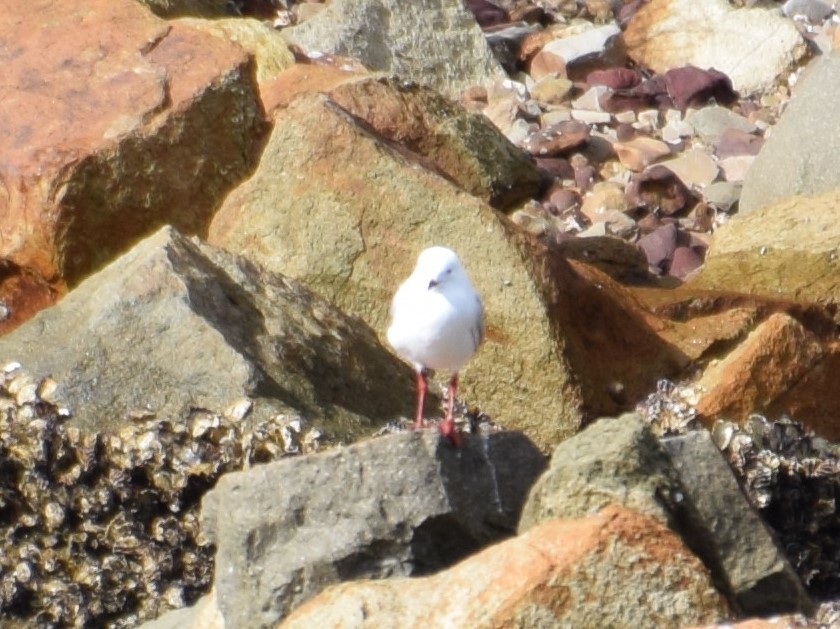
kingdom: Animalia
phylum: Chordata
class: Aves
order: Charadriiformes
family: Laridae
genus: Chroicocephalus
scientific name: Chroicocephalus novaehollandiae
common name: Silver gull
